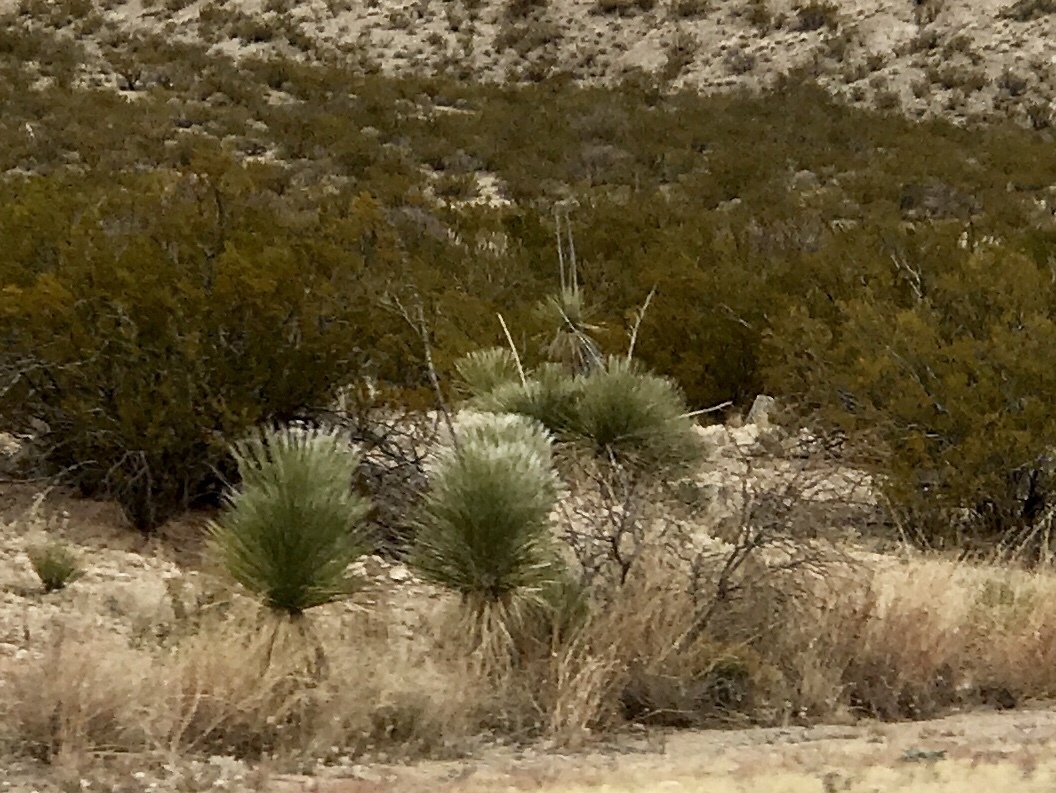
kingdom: Plantae
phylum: Tracheophyta
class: Liliopsida
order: Asparagales
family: Asparagaceae
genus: Yucca
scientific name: Yucca elata
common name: Palmella
